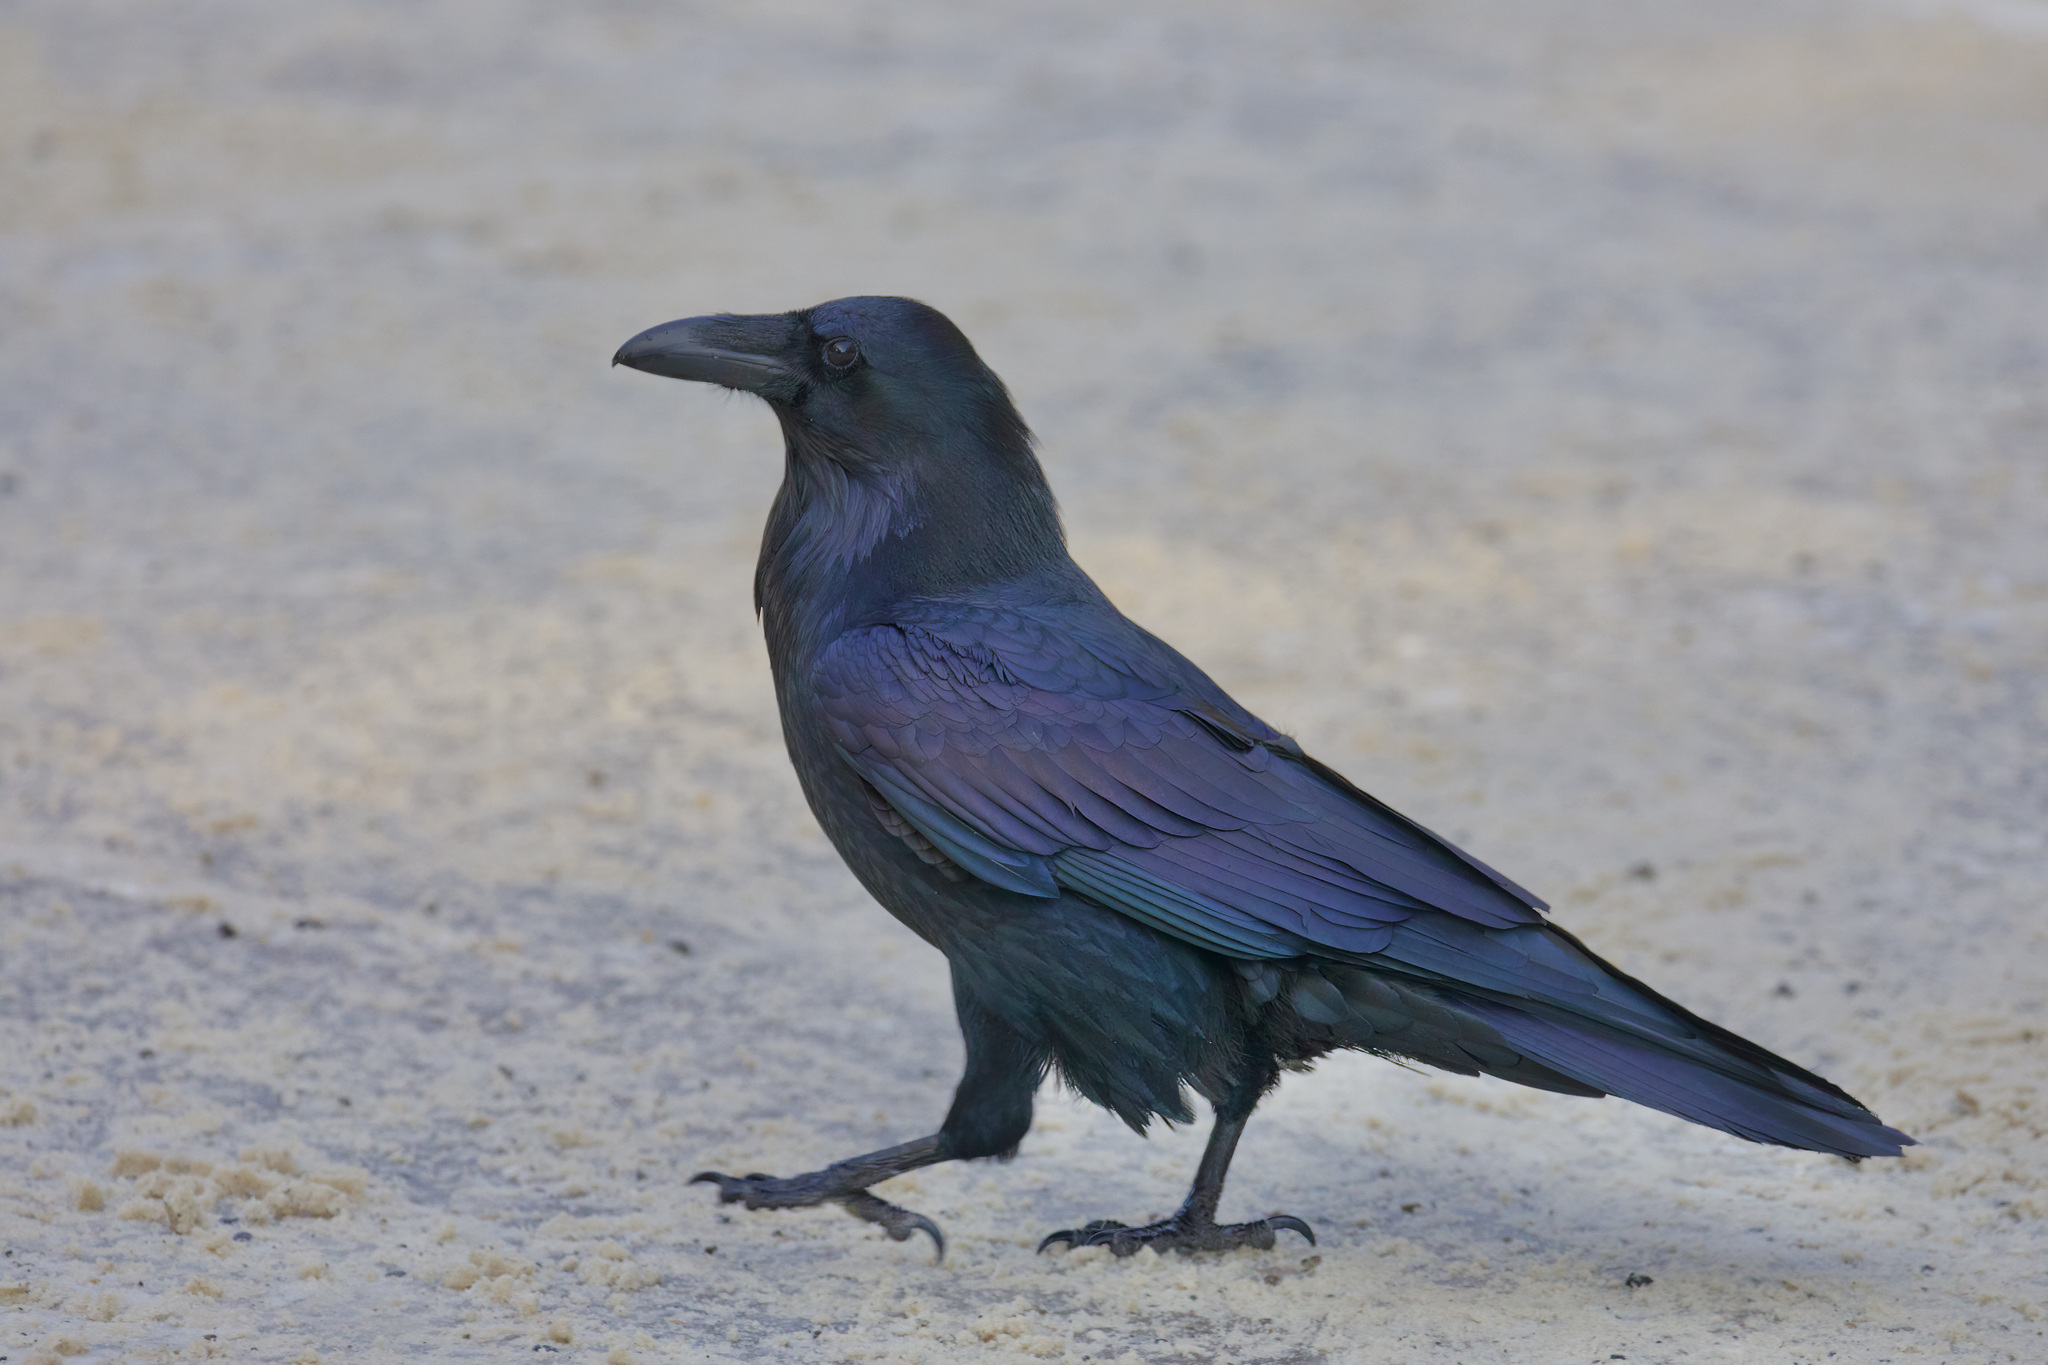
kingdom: Animalia
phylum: Chordata
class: Aves
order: Passeriformes
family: Corvidae
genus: Corvus
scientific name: Corvus corax
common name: Common raven
